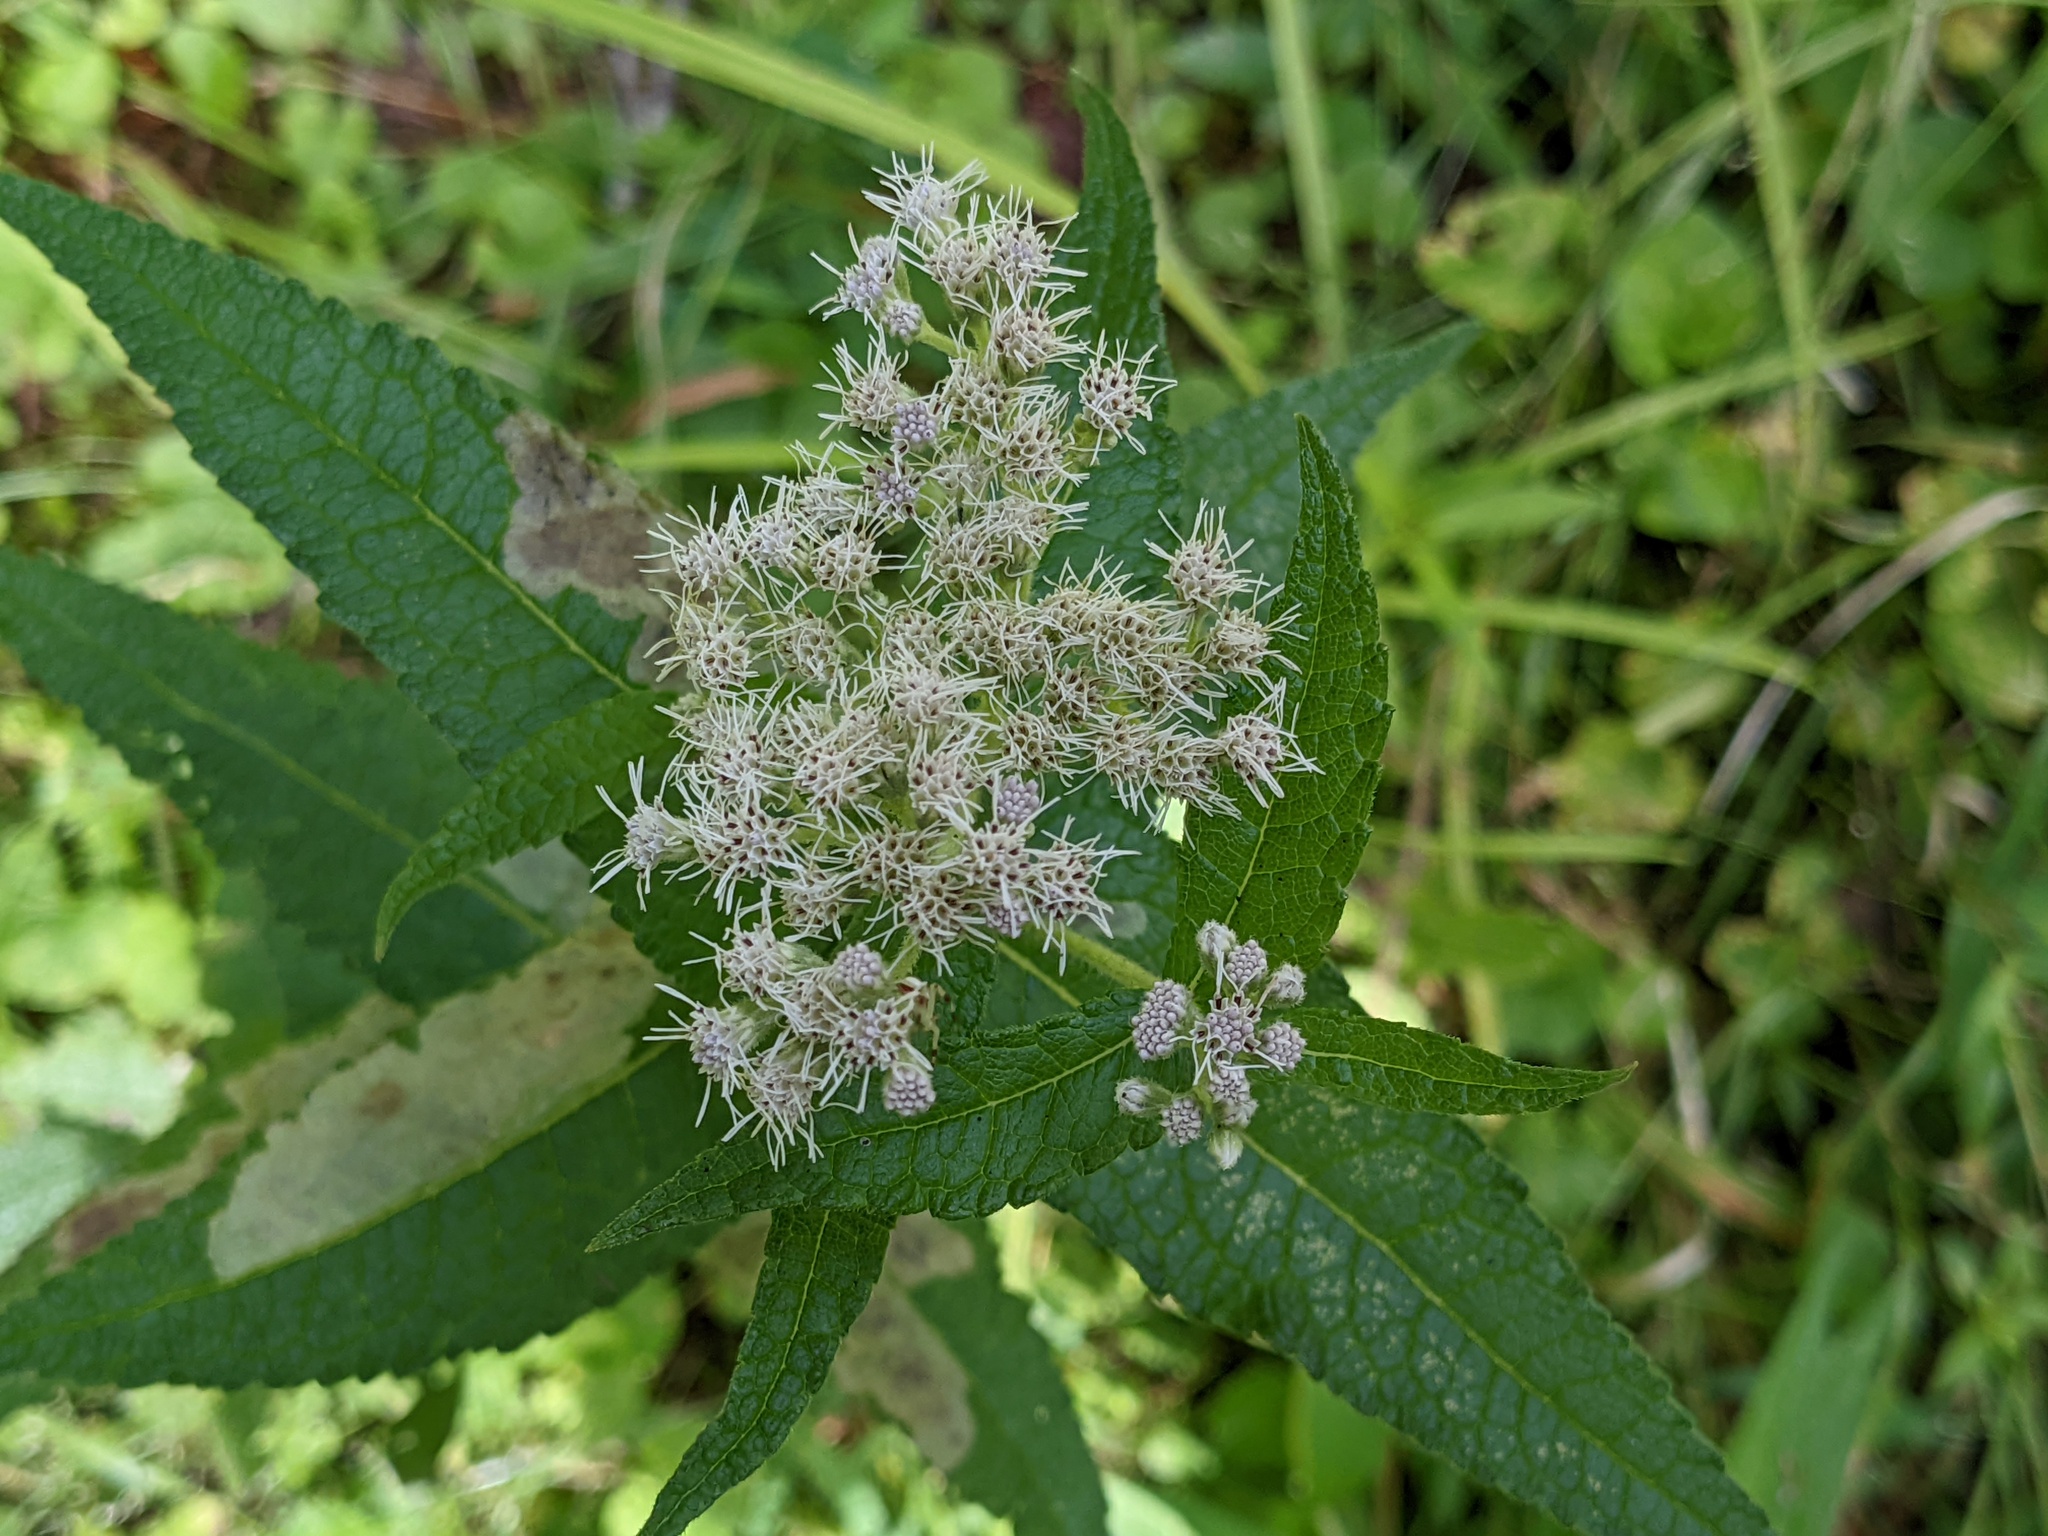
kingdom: Plantae
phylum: Tracheophyta
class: Magnoliopsida
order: Asterales
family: Asteraceae
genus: Eupatorium
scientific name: Eupatorium perfoliatum
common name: Boneset
